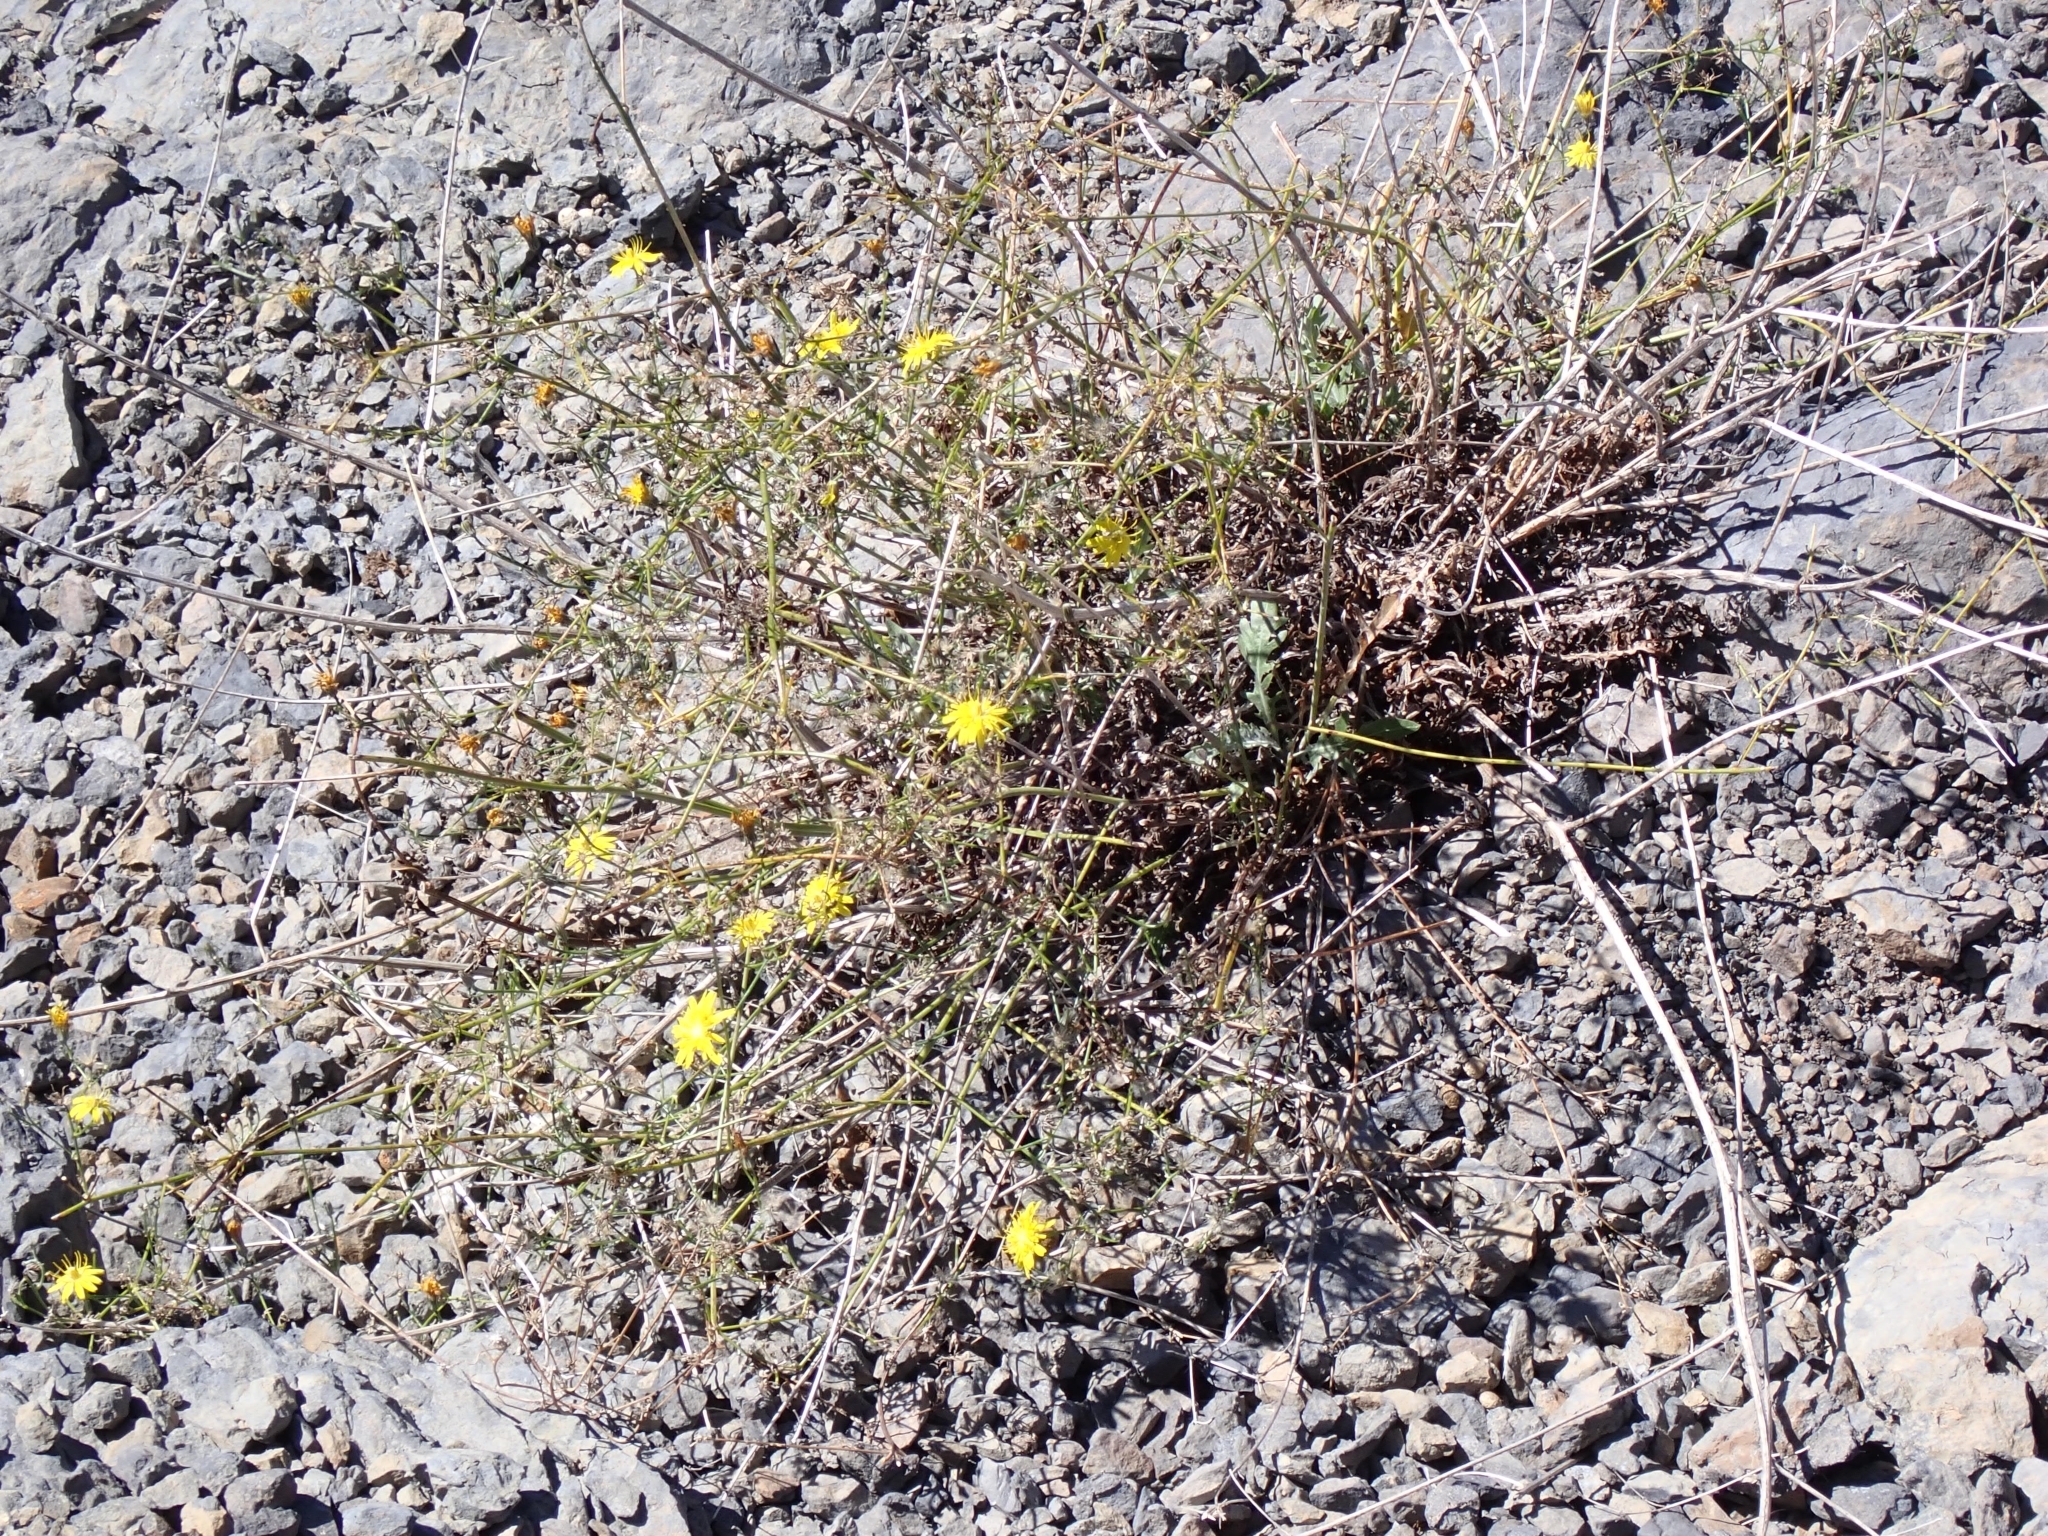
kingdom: Plantae
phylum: Tracheophyta
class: Magnoliopsida
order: Asterales
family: Asteraceae
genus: Tolpis
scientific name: Tolpis calderae
